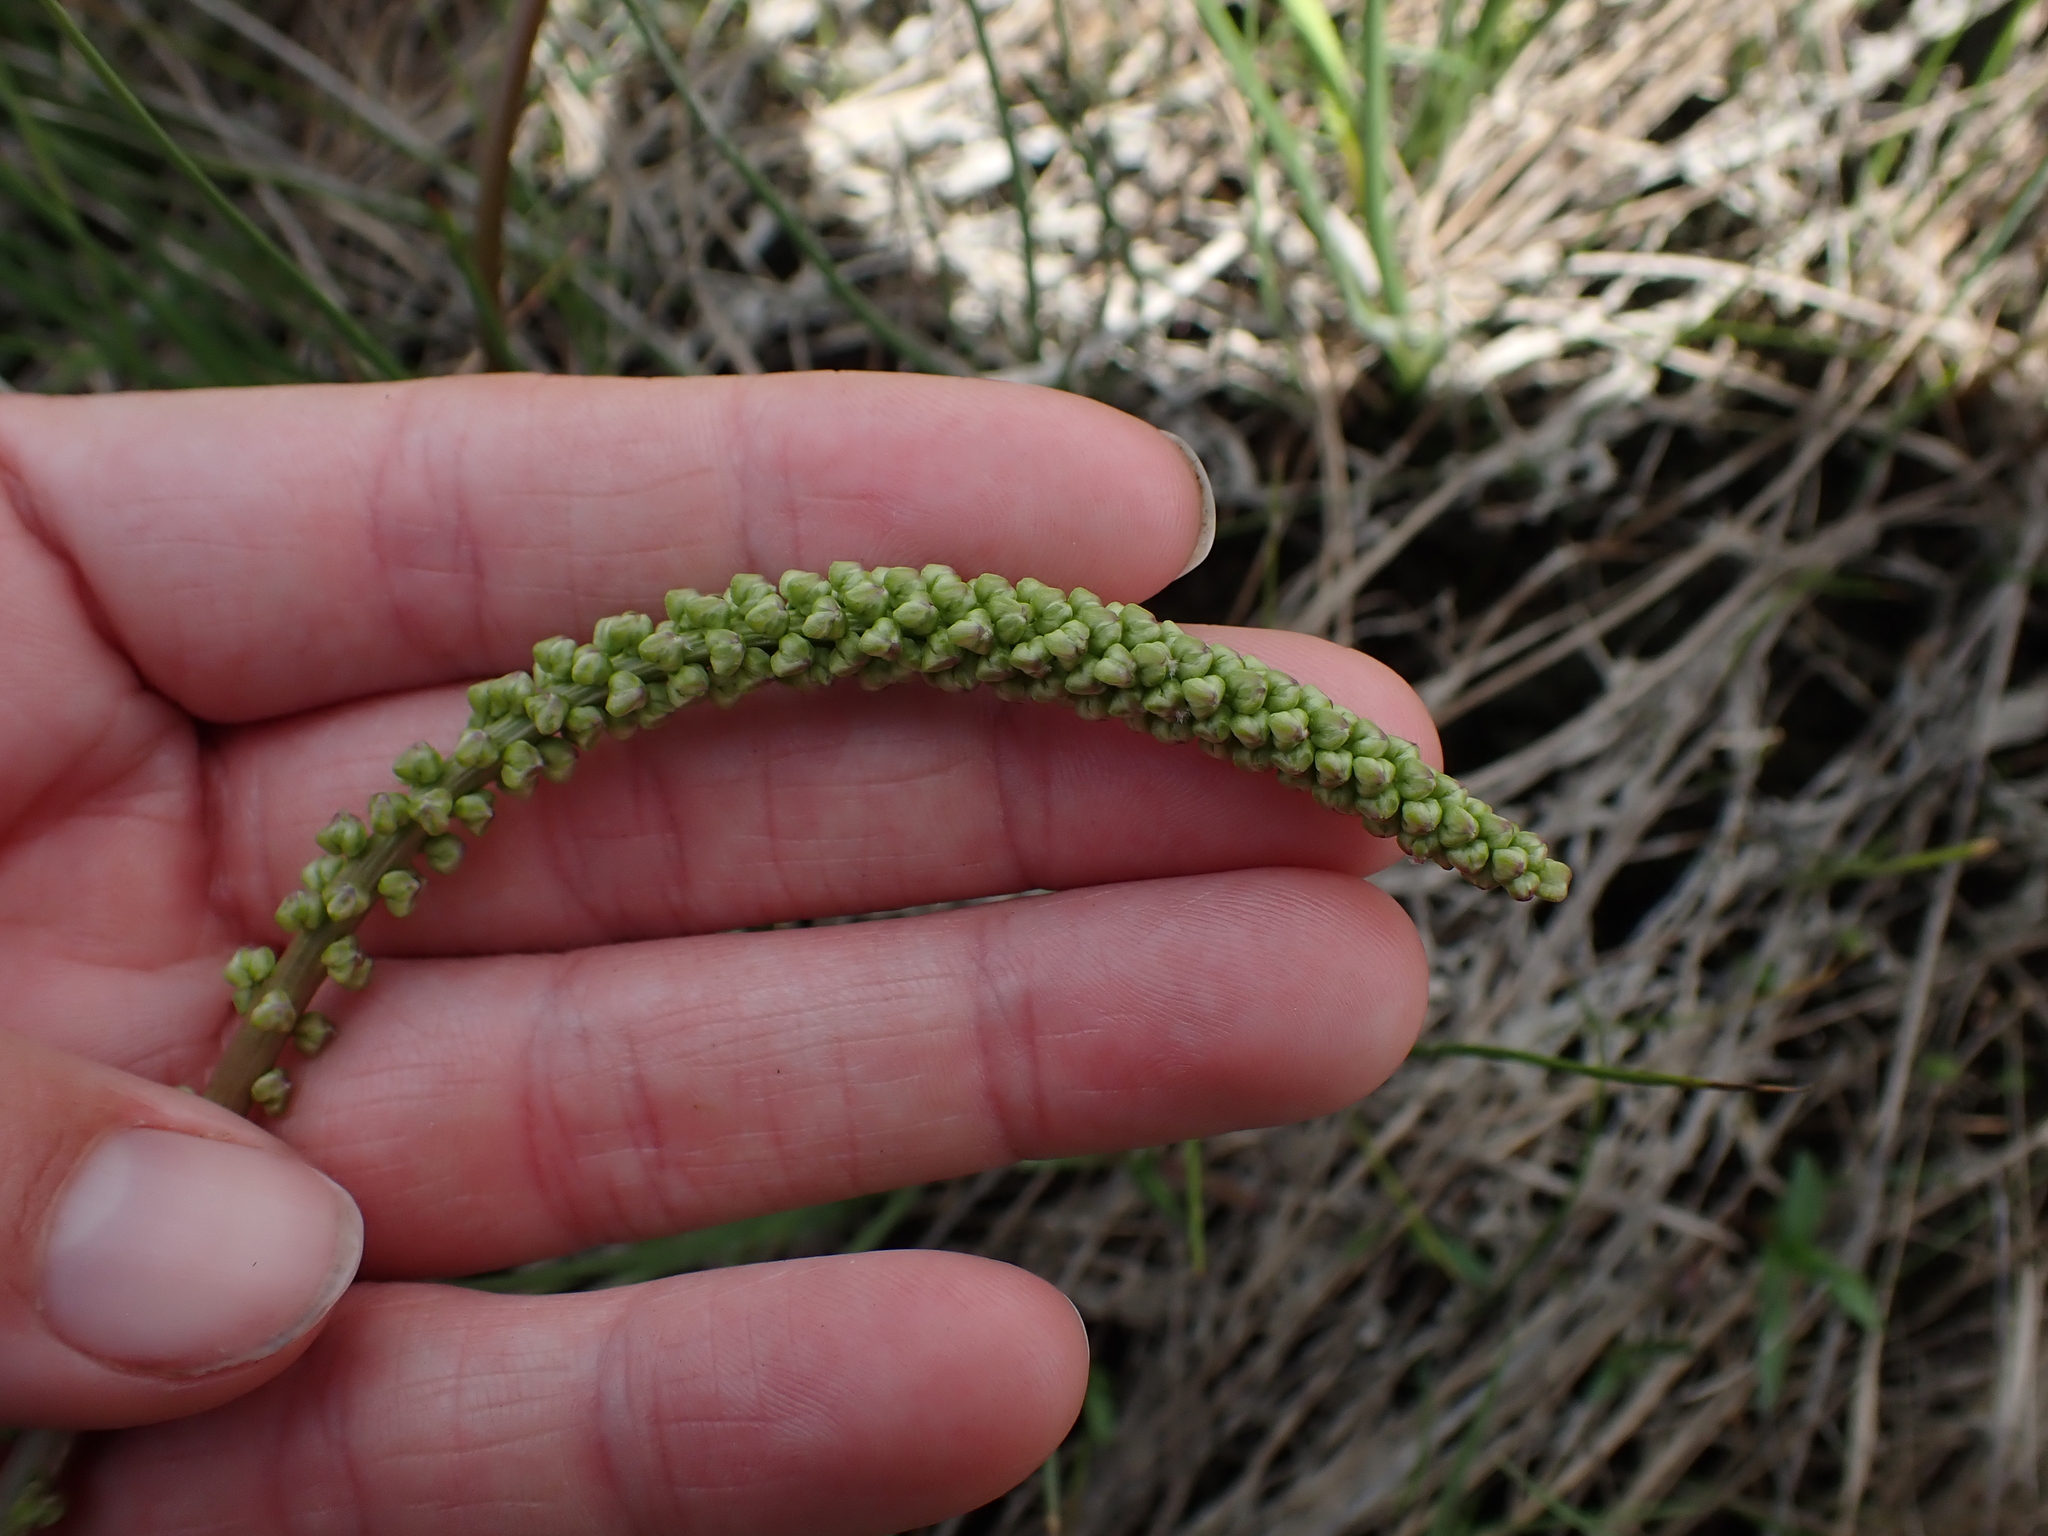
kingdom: Plantae
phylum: Tracheophyta
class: Liliopsida
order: Alismatales
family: Juncaginaceae
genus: Triglochin
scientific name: Triglochin maritima
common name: Sea arrowgrass
